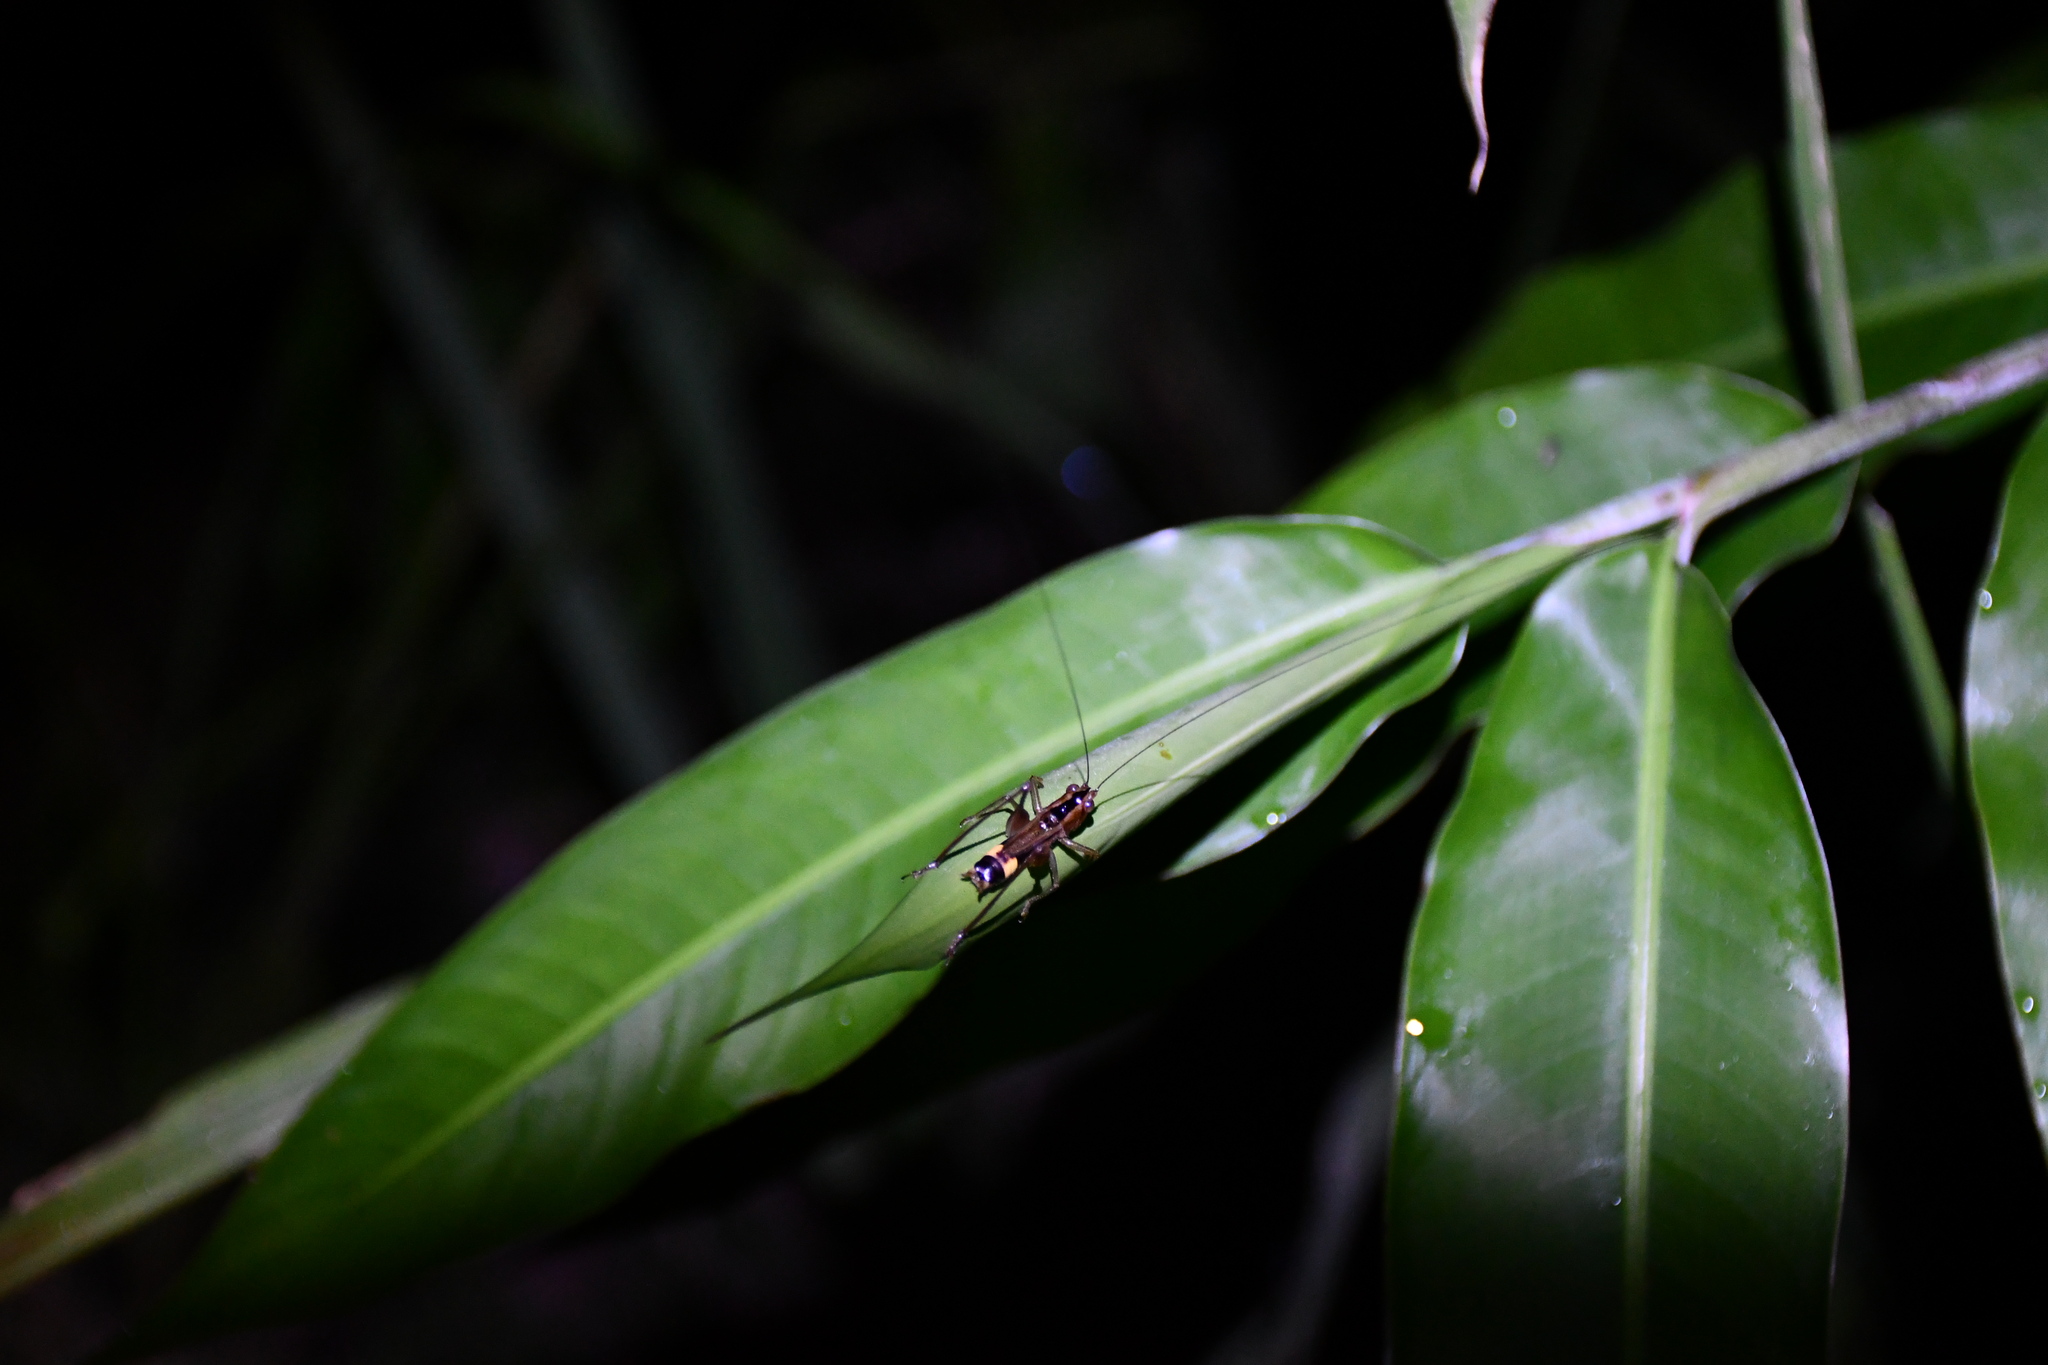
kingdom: Animalia
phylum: Arthropoda
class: Insecta
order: Orthoptera
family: Tettigoniidae
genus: Conocephalus
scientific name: Conocephalus versicolor
